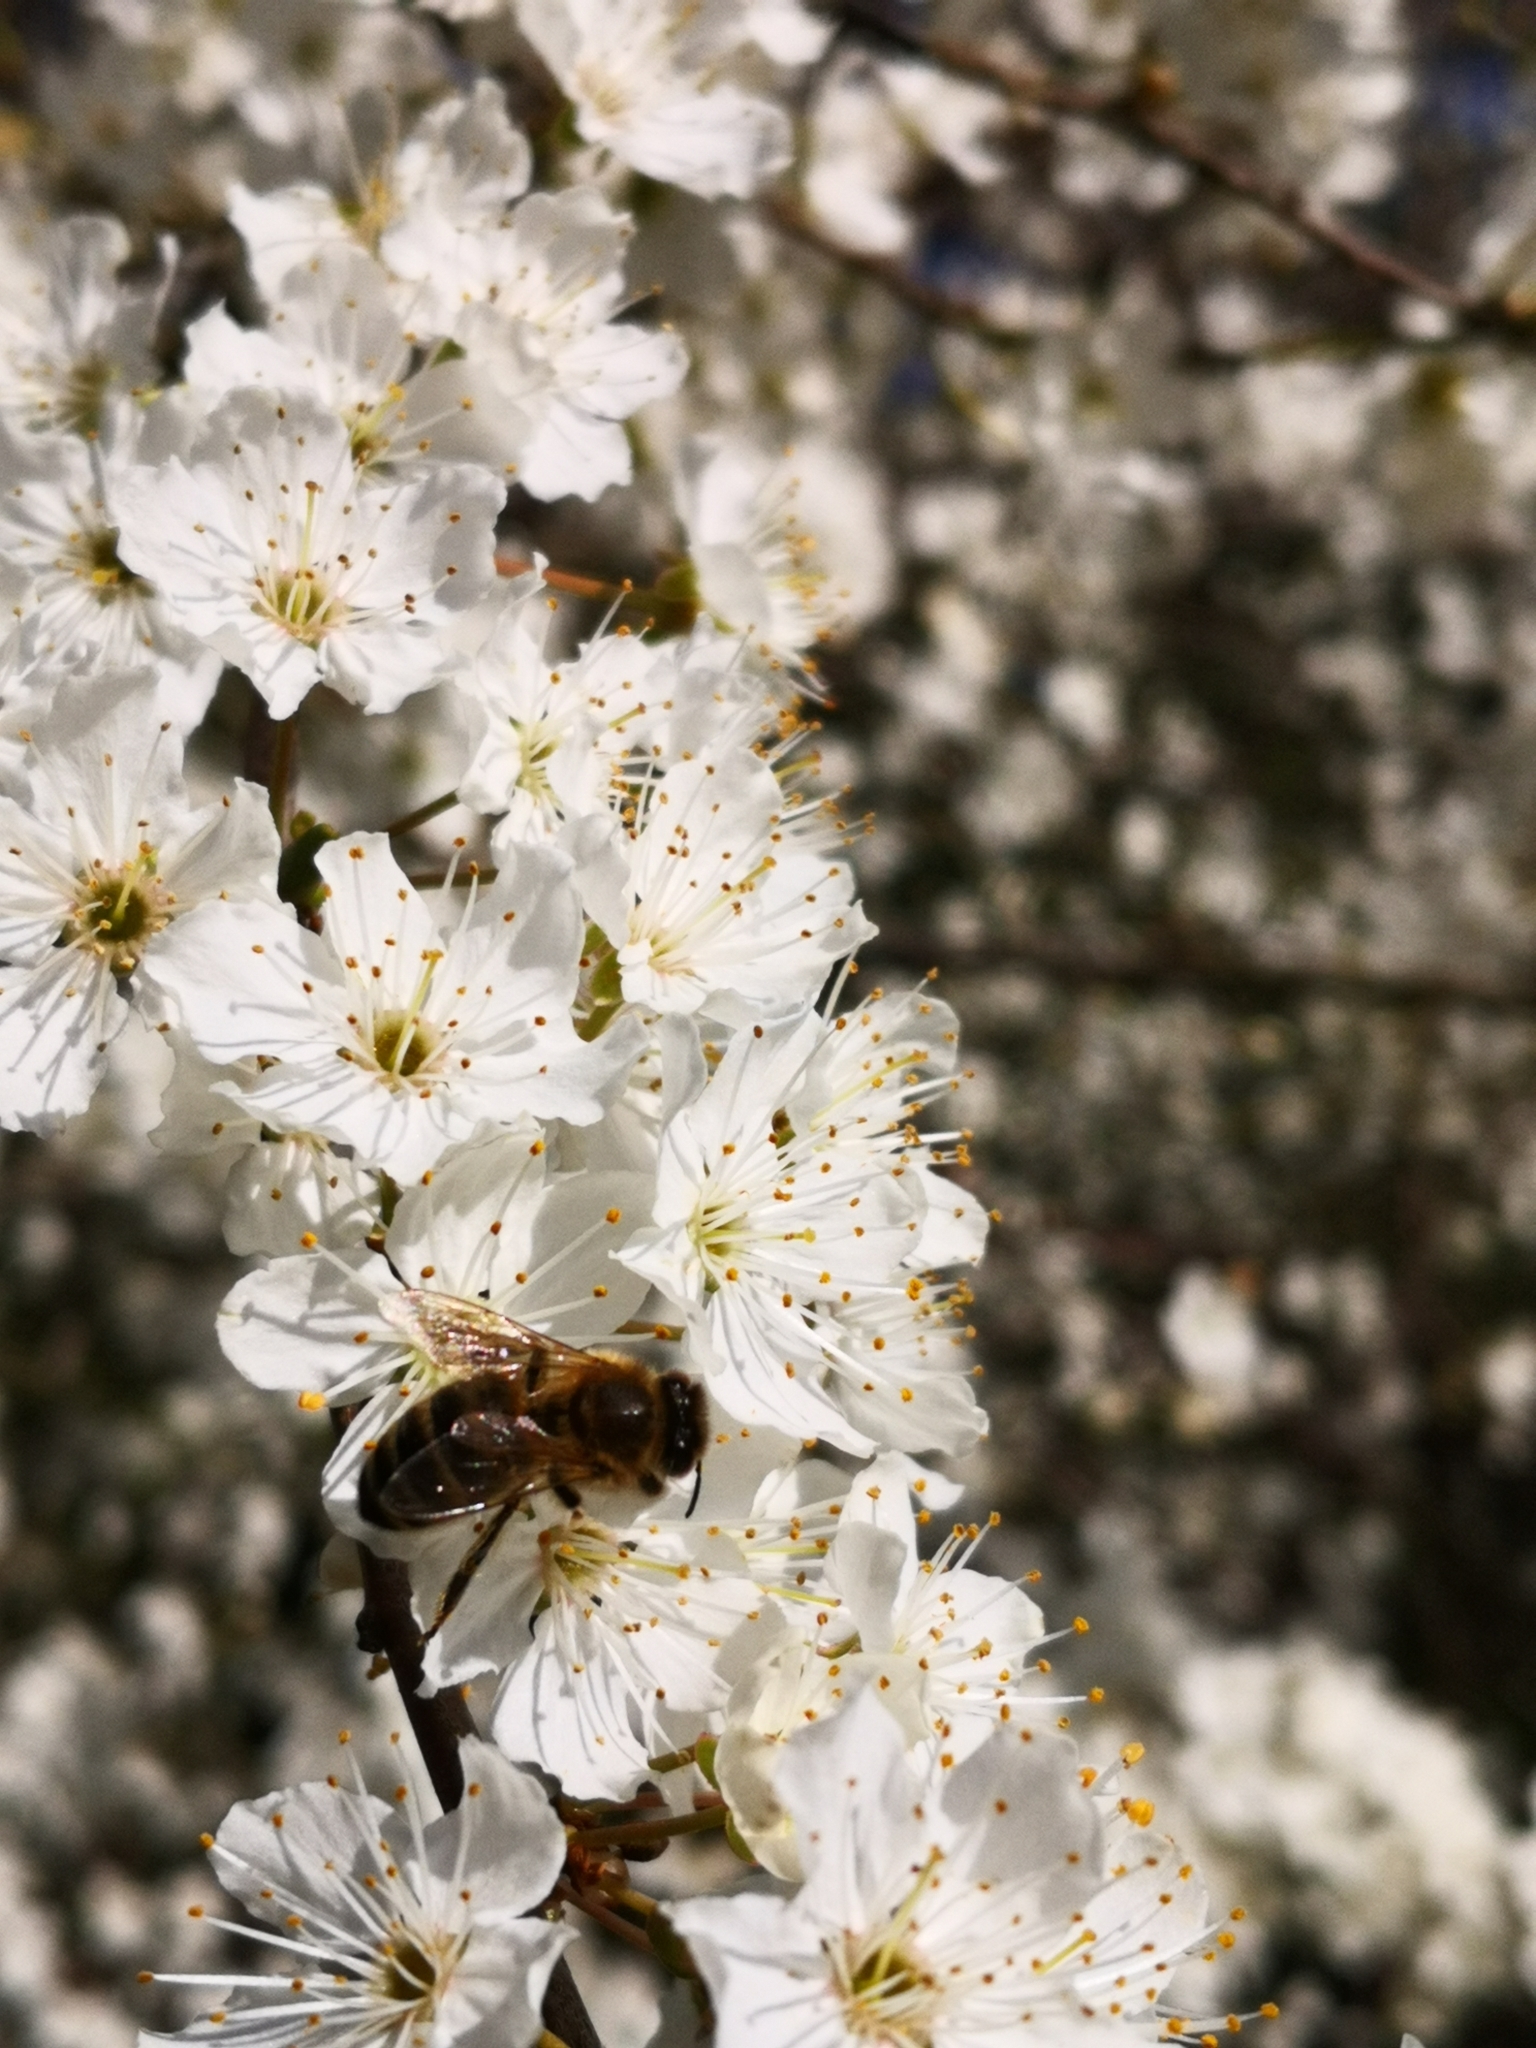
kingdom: Animalia
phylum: Arthropoda
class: Insecta
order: Hymenoptera
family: Apidae
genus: Apis
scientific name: Apis mellifera
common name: Honey bee
